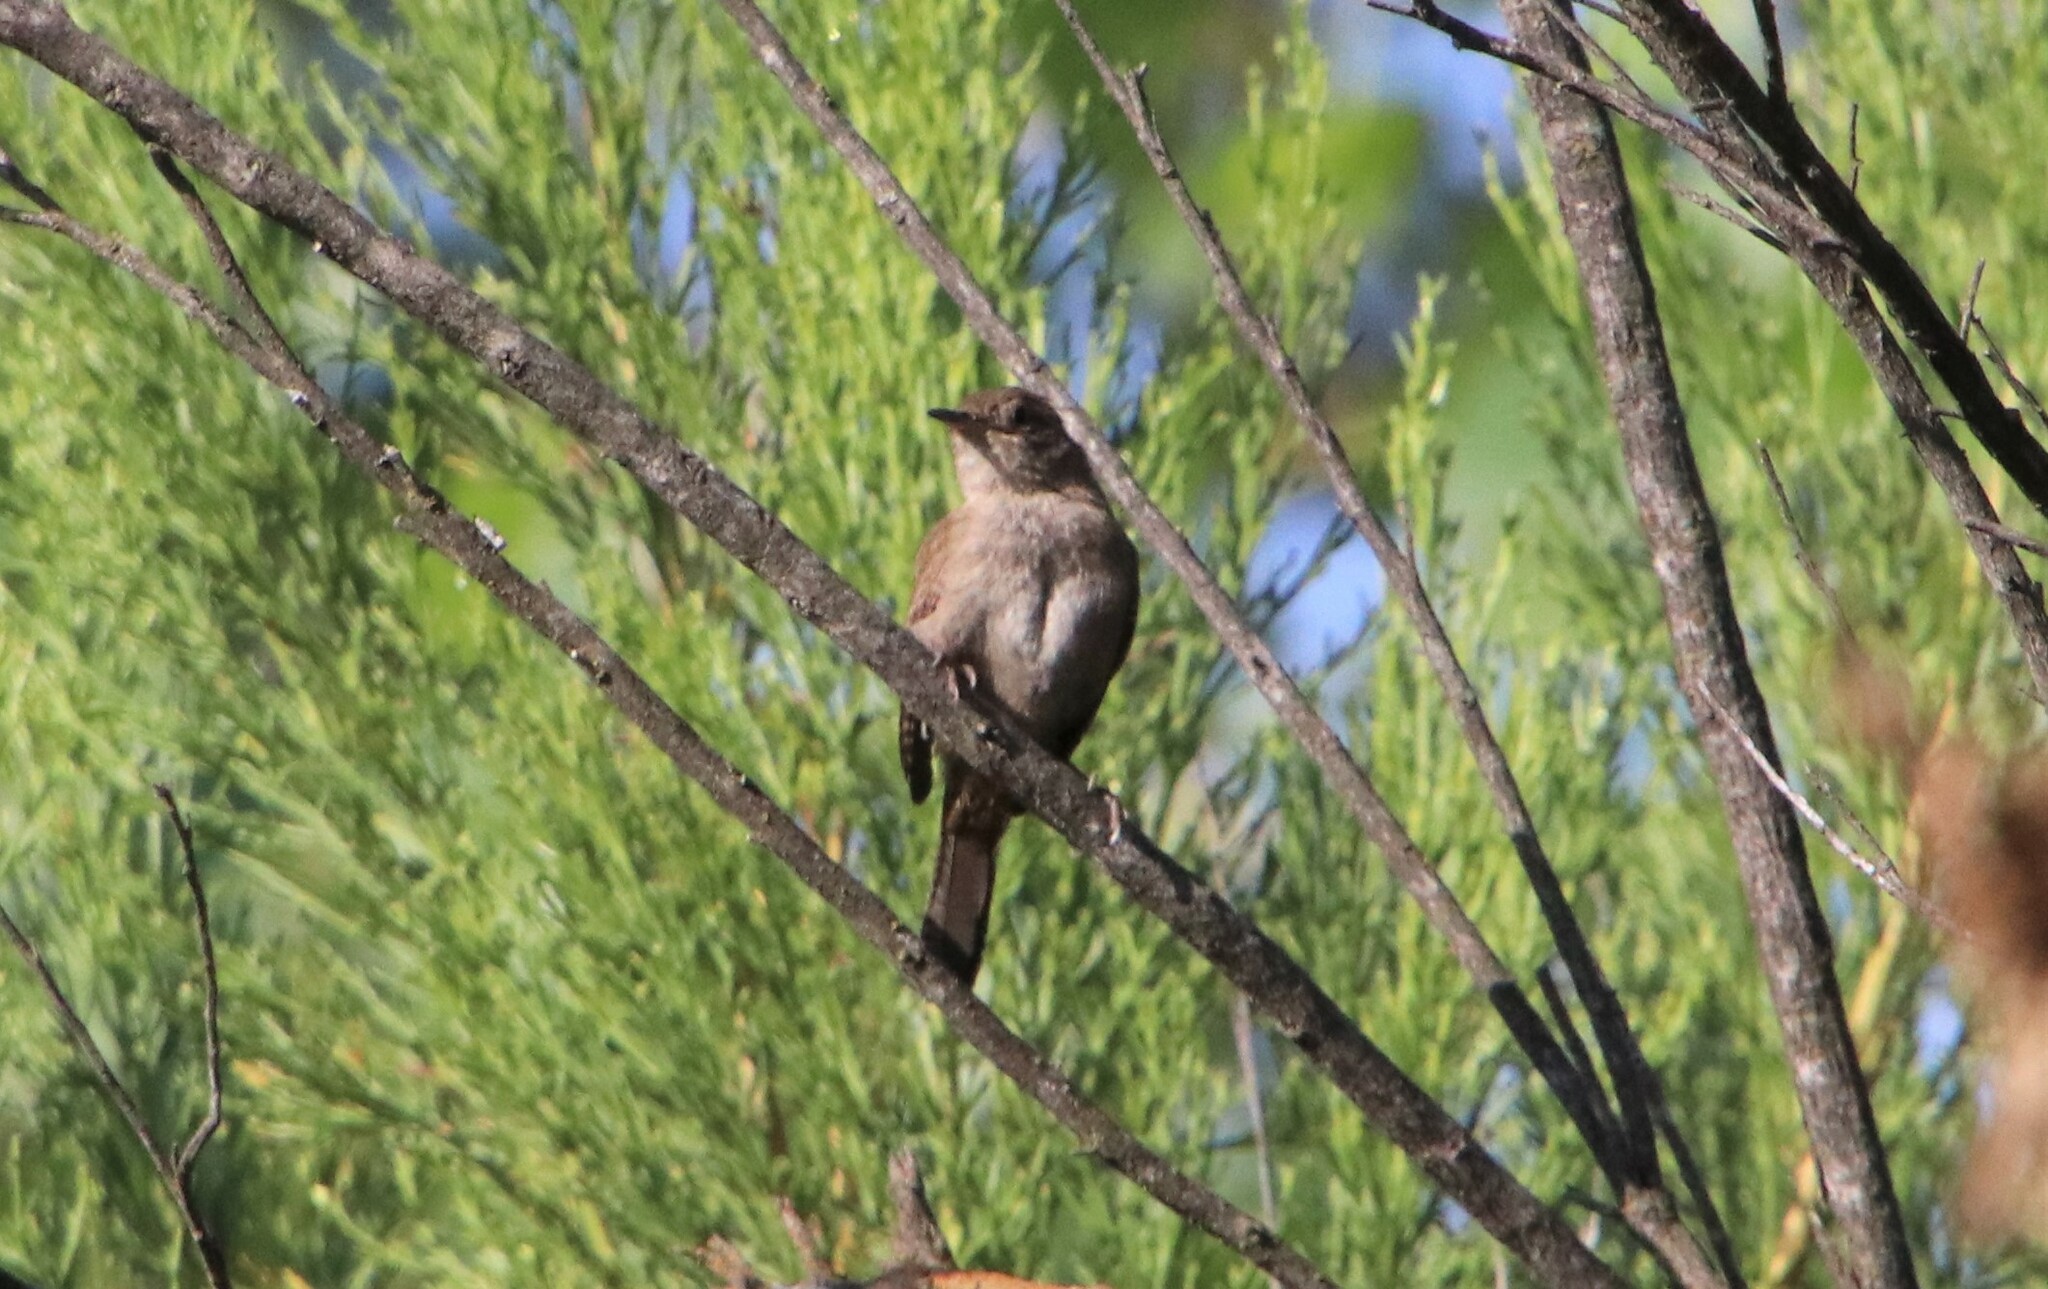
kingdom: Animalia
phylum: Chordata
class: Aves
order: Passeriformes
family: Troglodytidae
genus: Troglodytes
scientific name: Troglodytes aedon
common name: House wren
